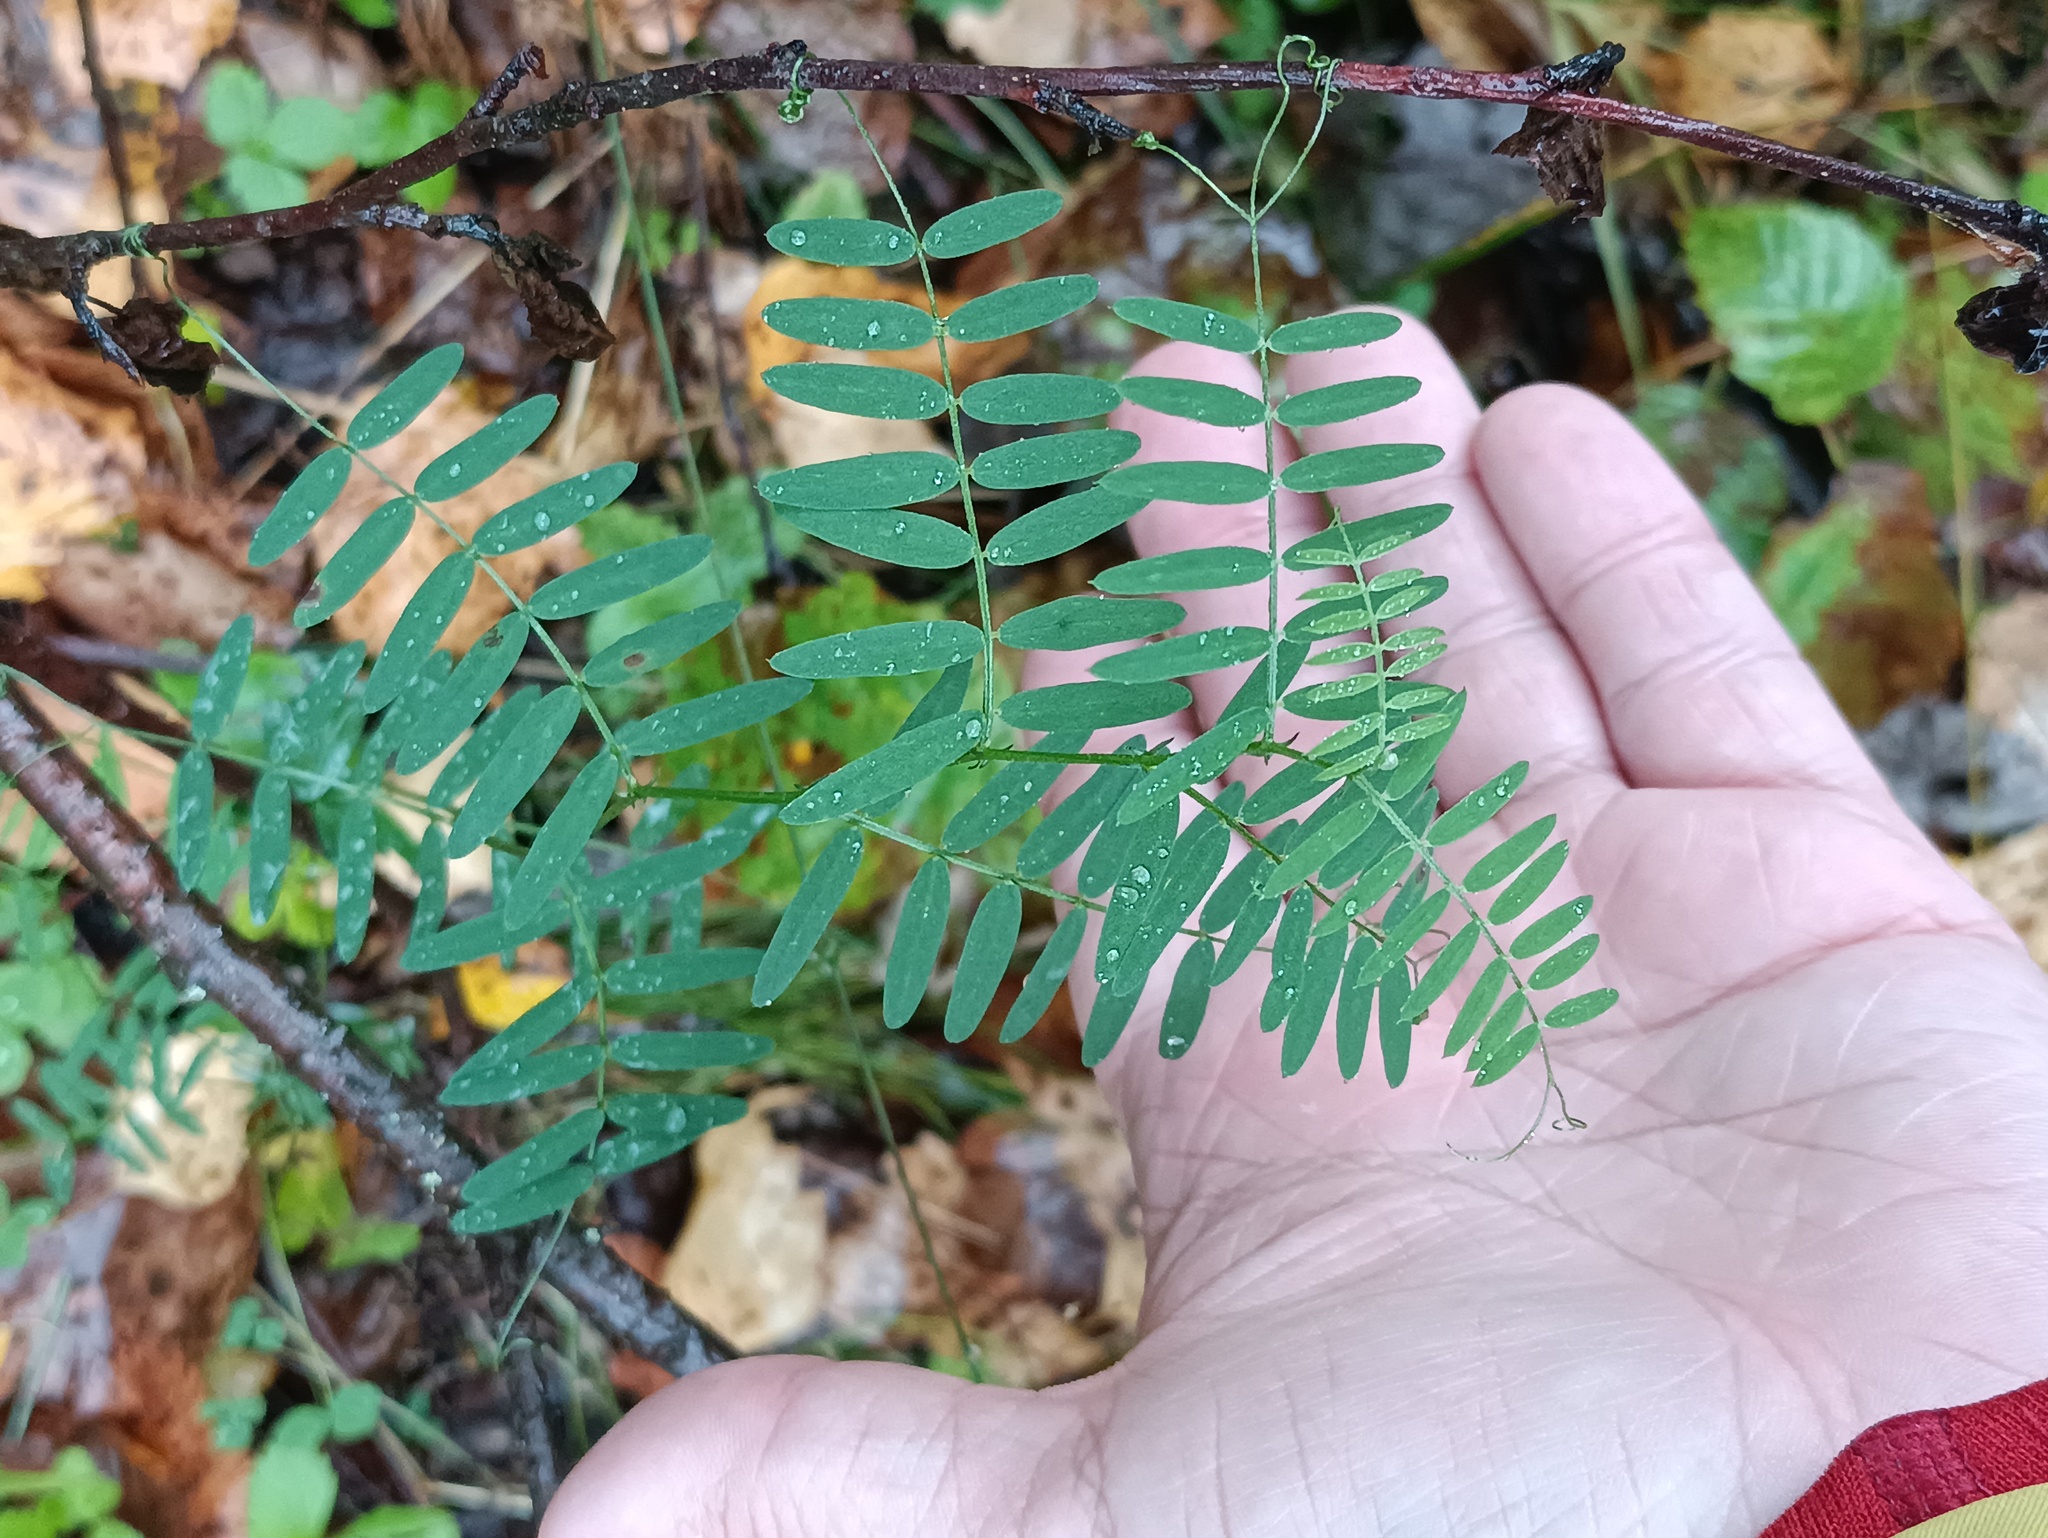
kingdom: Plantae
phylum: Tracheophyta
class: Magnoliopsida
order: Fabales
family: Fabaceae
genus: Vicia
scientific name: Vicia cracca
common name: Bird vetch
